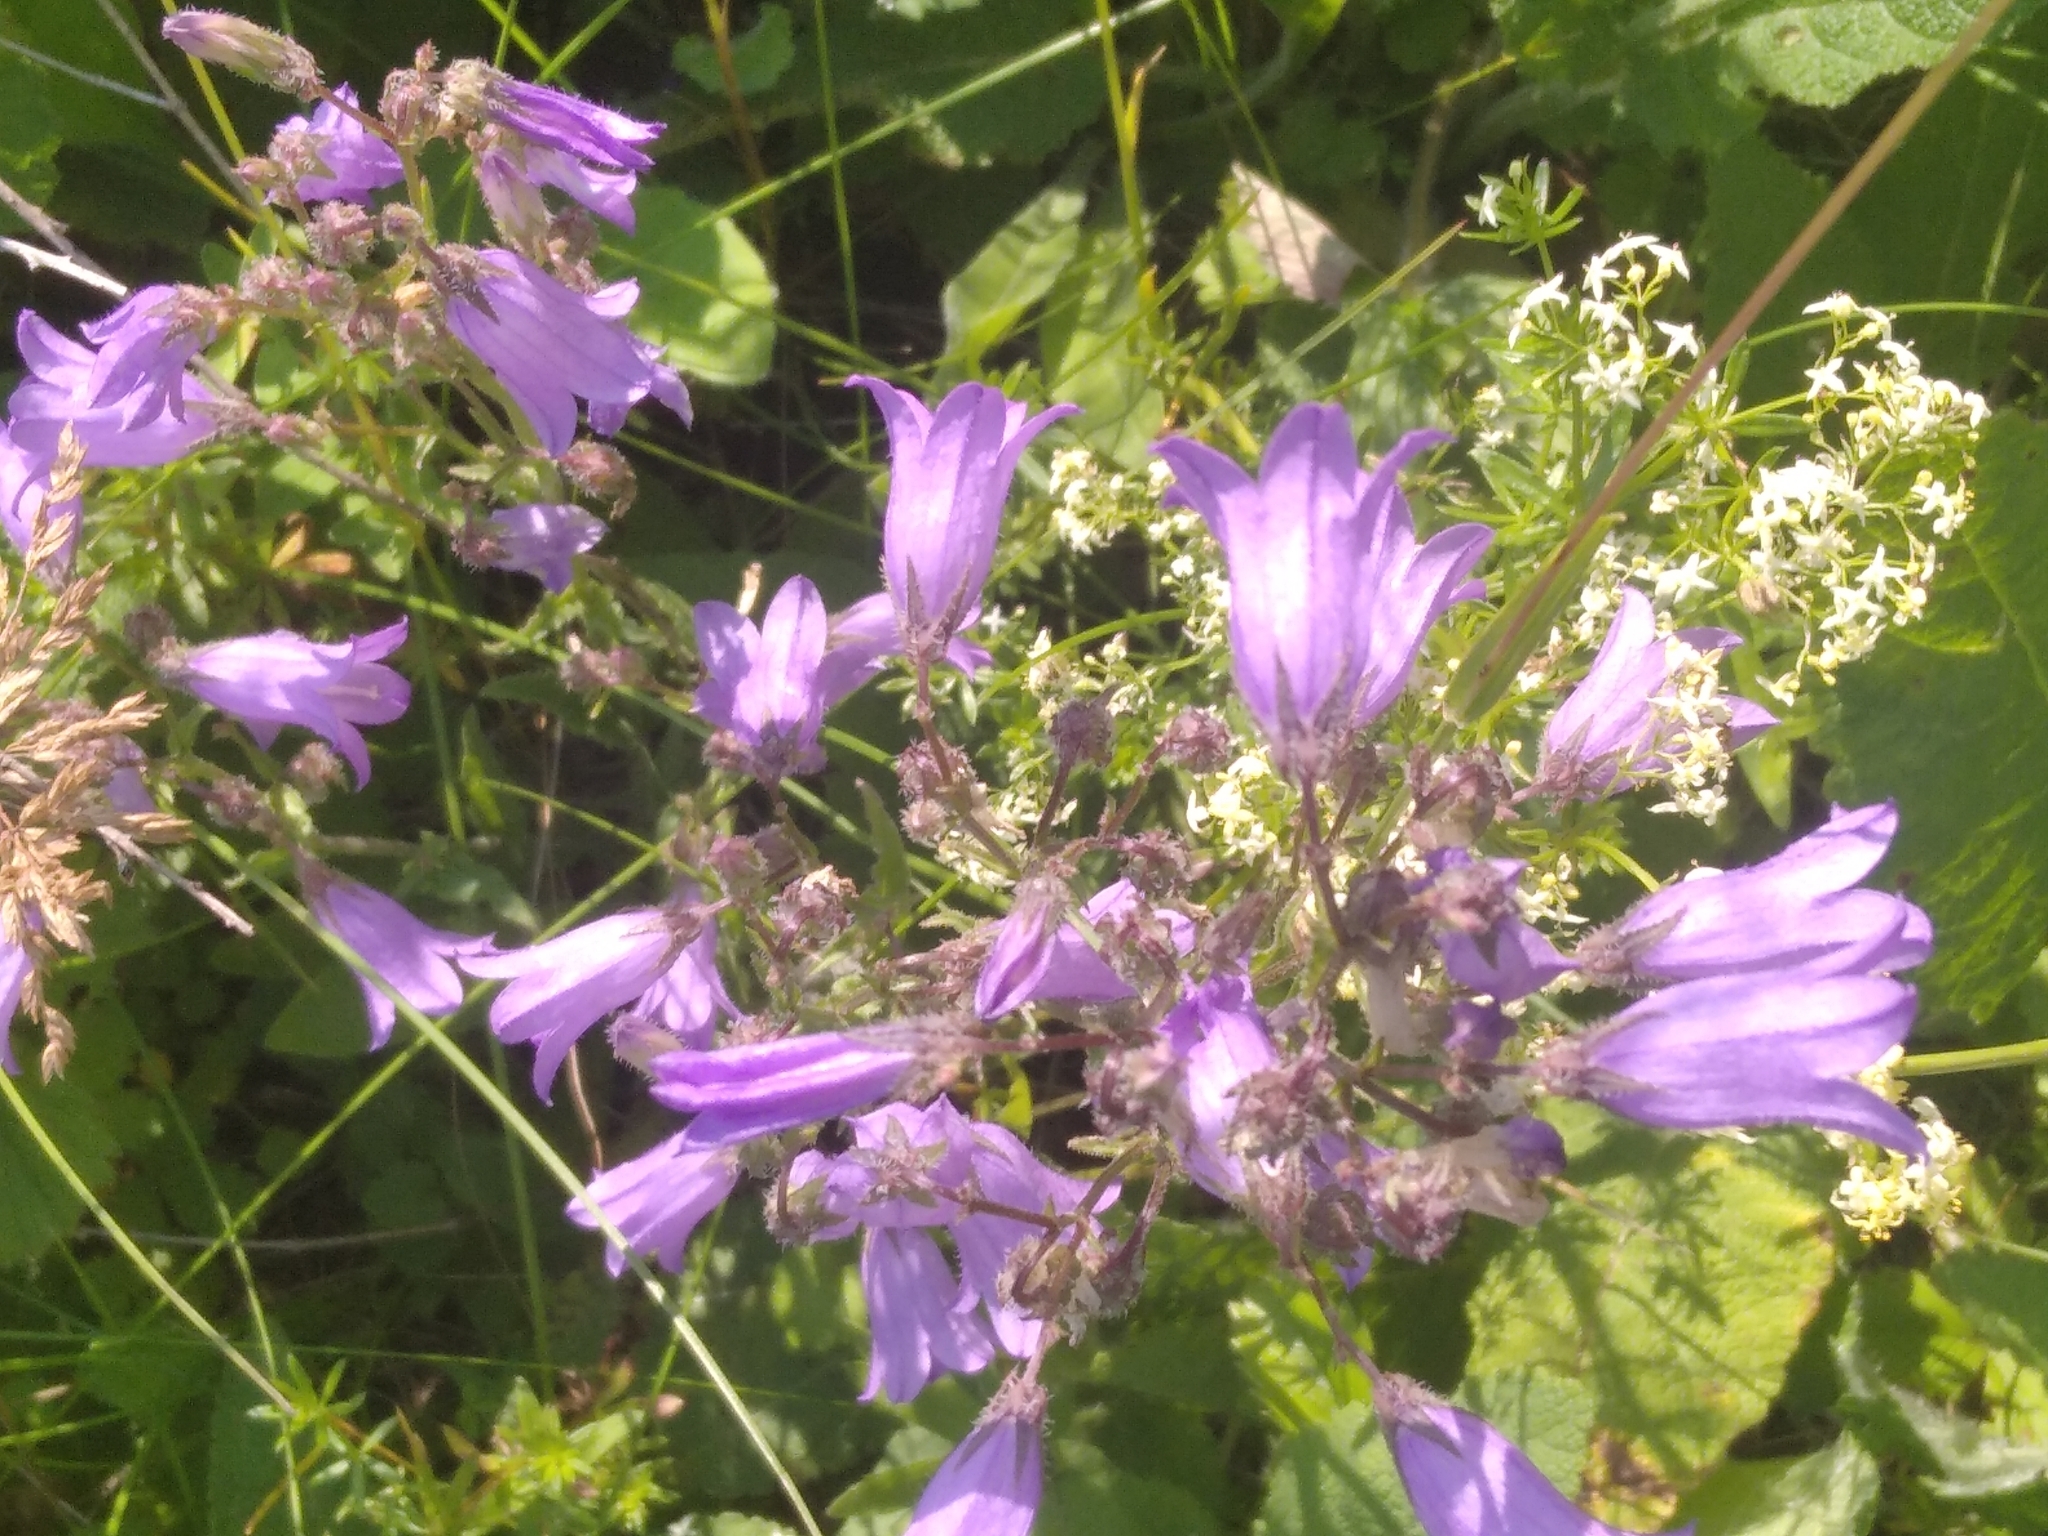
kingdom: Plantae
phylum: Tracheophyta
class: Magnoliopsida
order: Asterales
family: Campanulaceae
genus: Campanula
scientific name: Campanula sibirica
